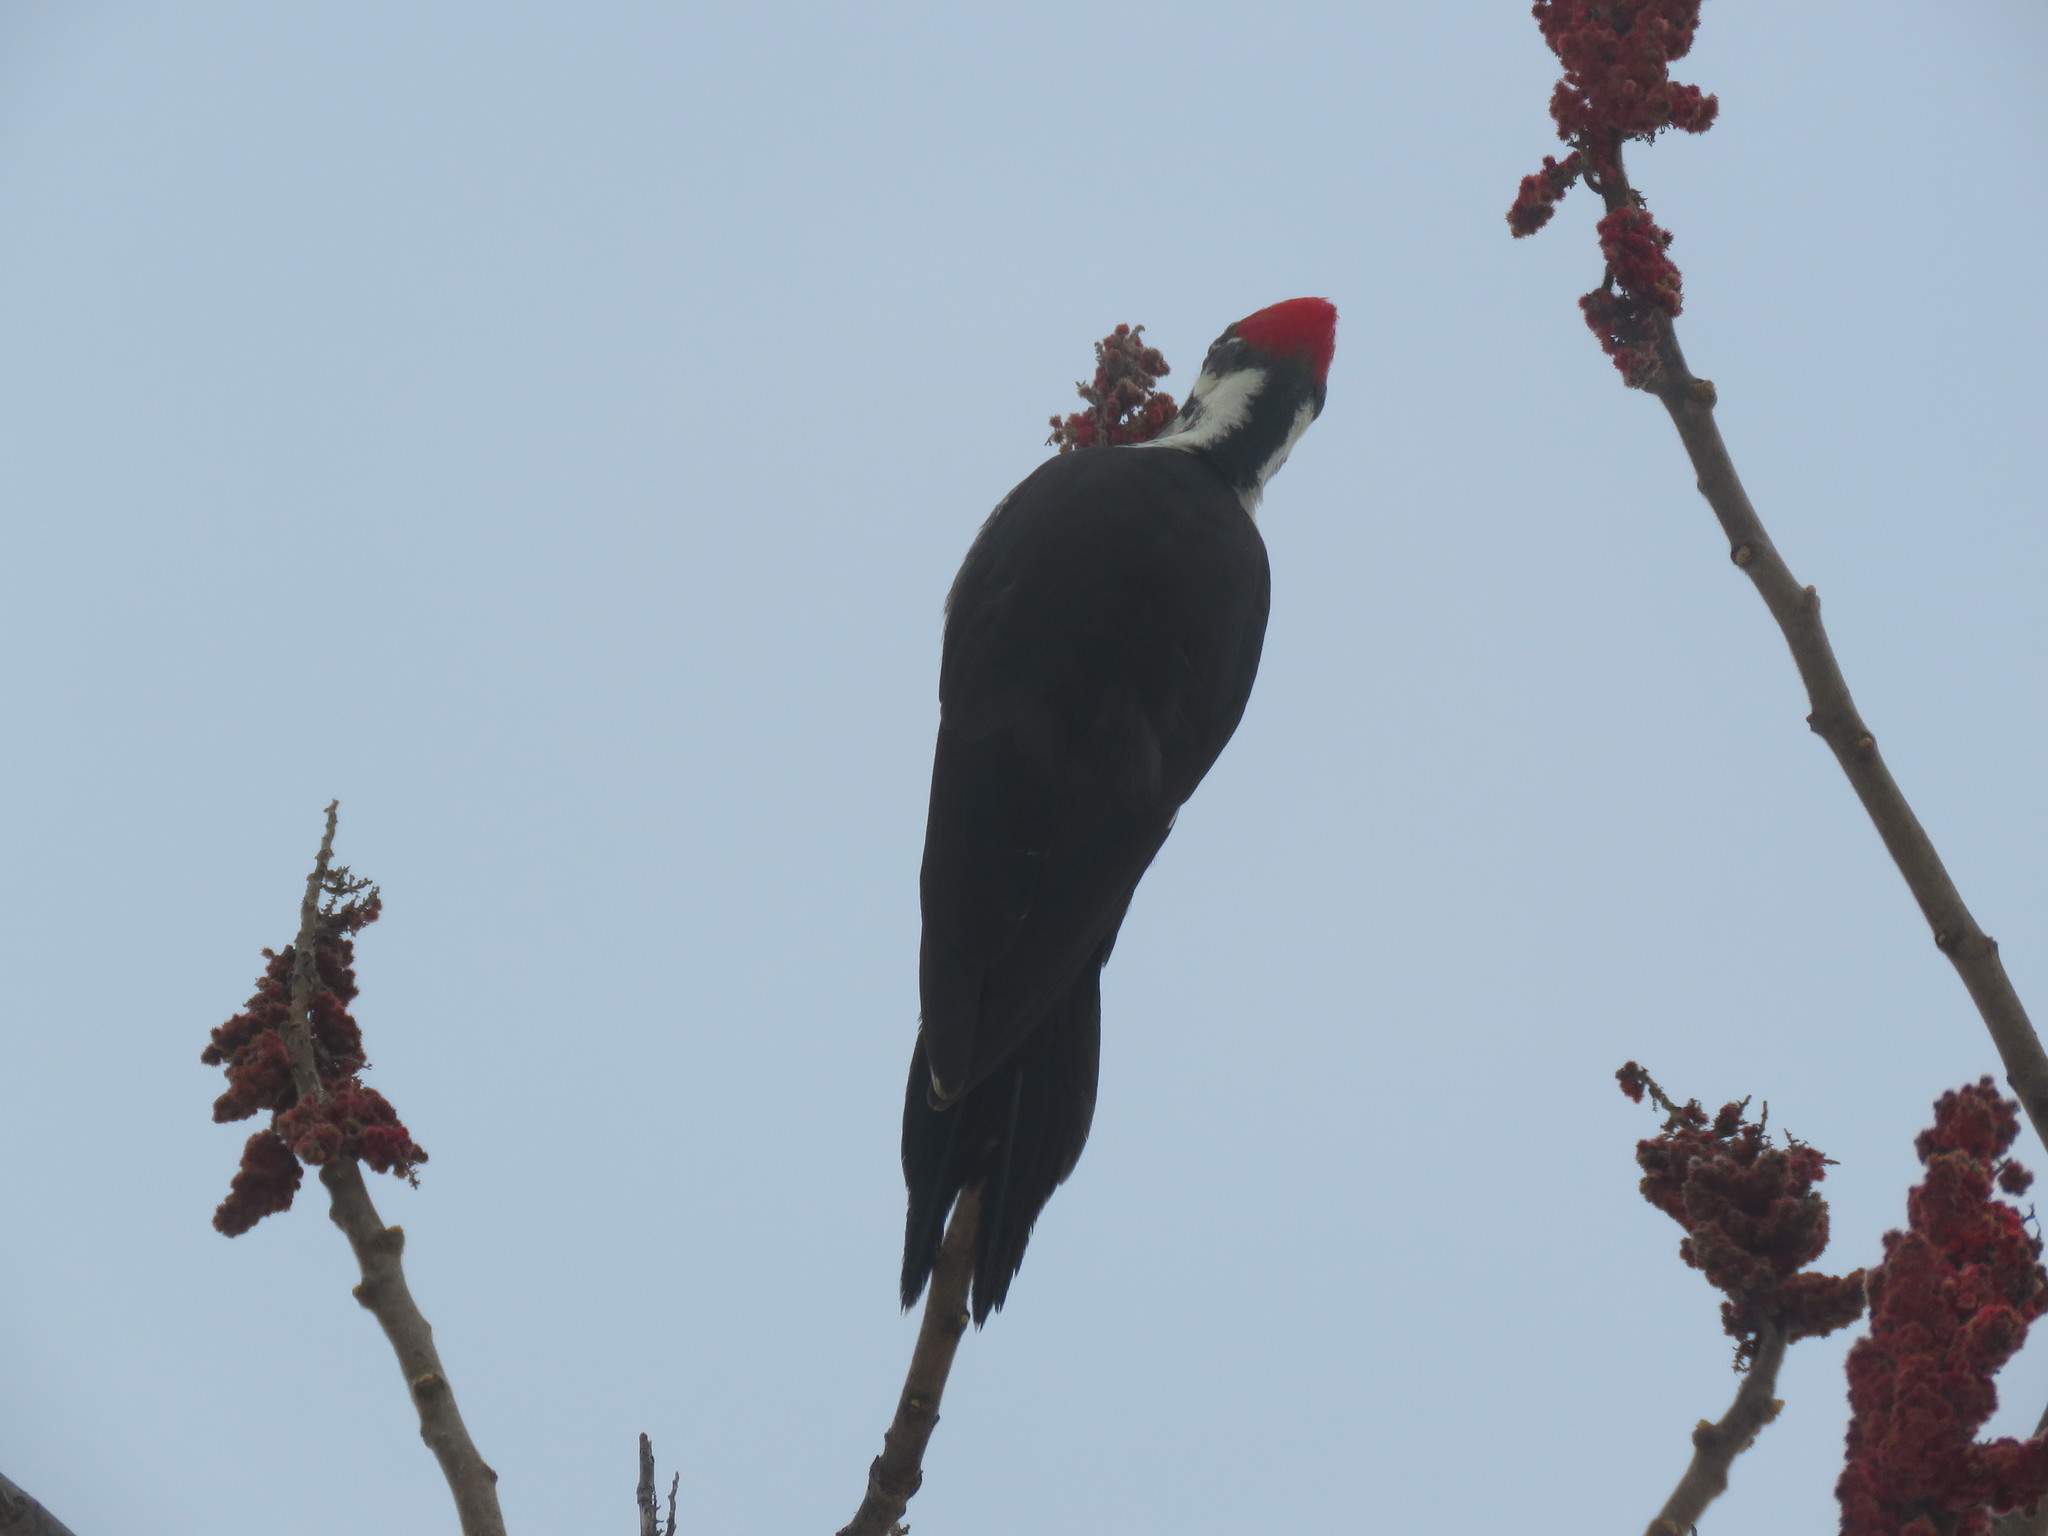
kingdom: Animalia
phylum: Chordata
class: Aves
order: Piciformes
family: Picidae
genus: Dryocopus
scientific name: Dryocopus pileatus
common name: Pileated woodpecker
